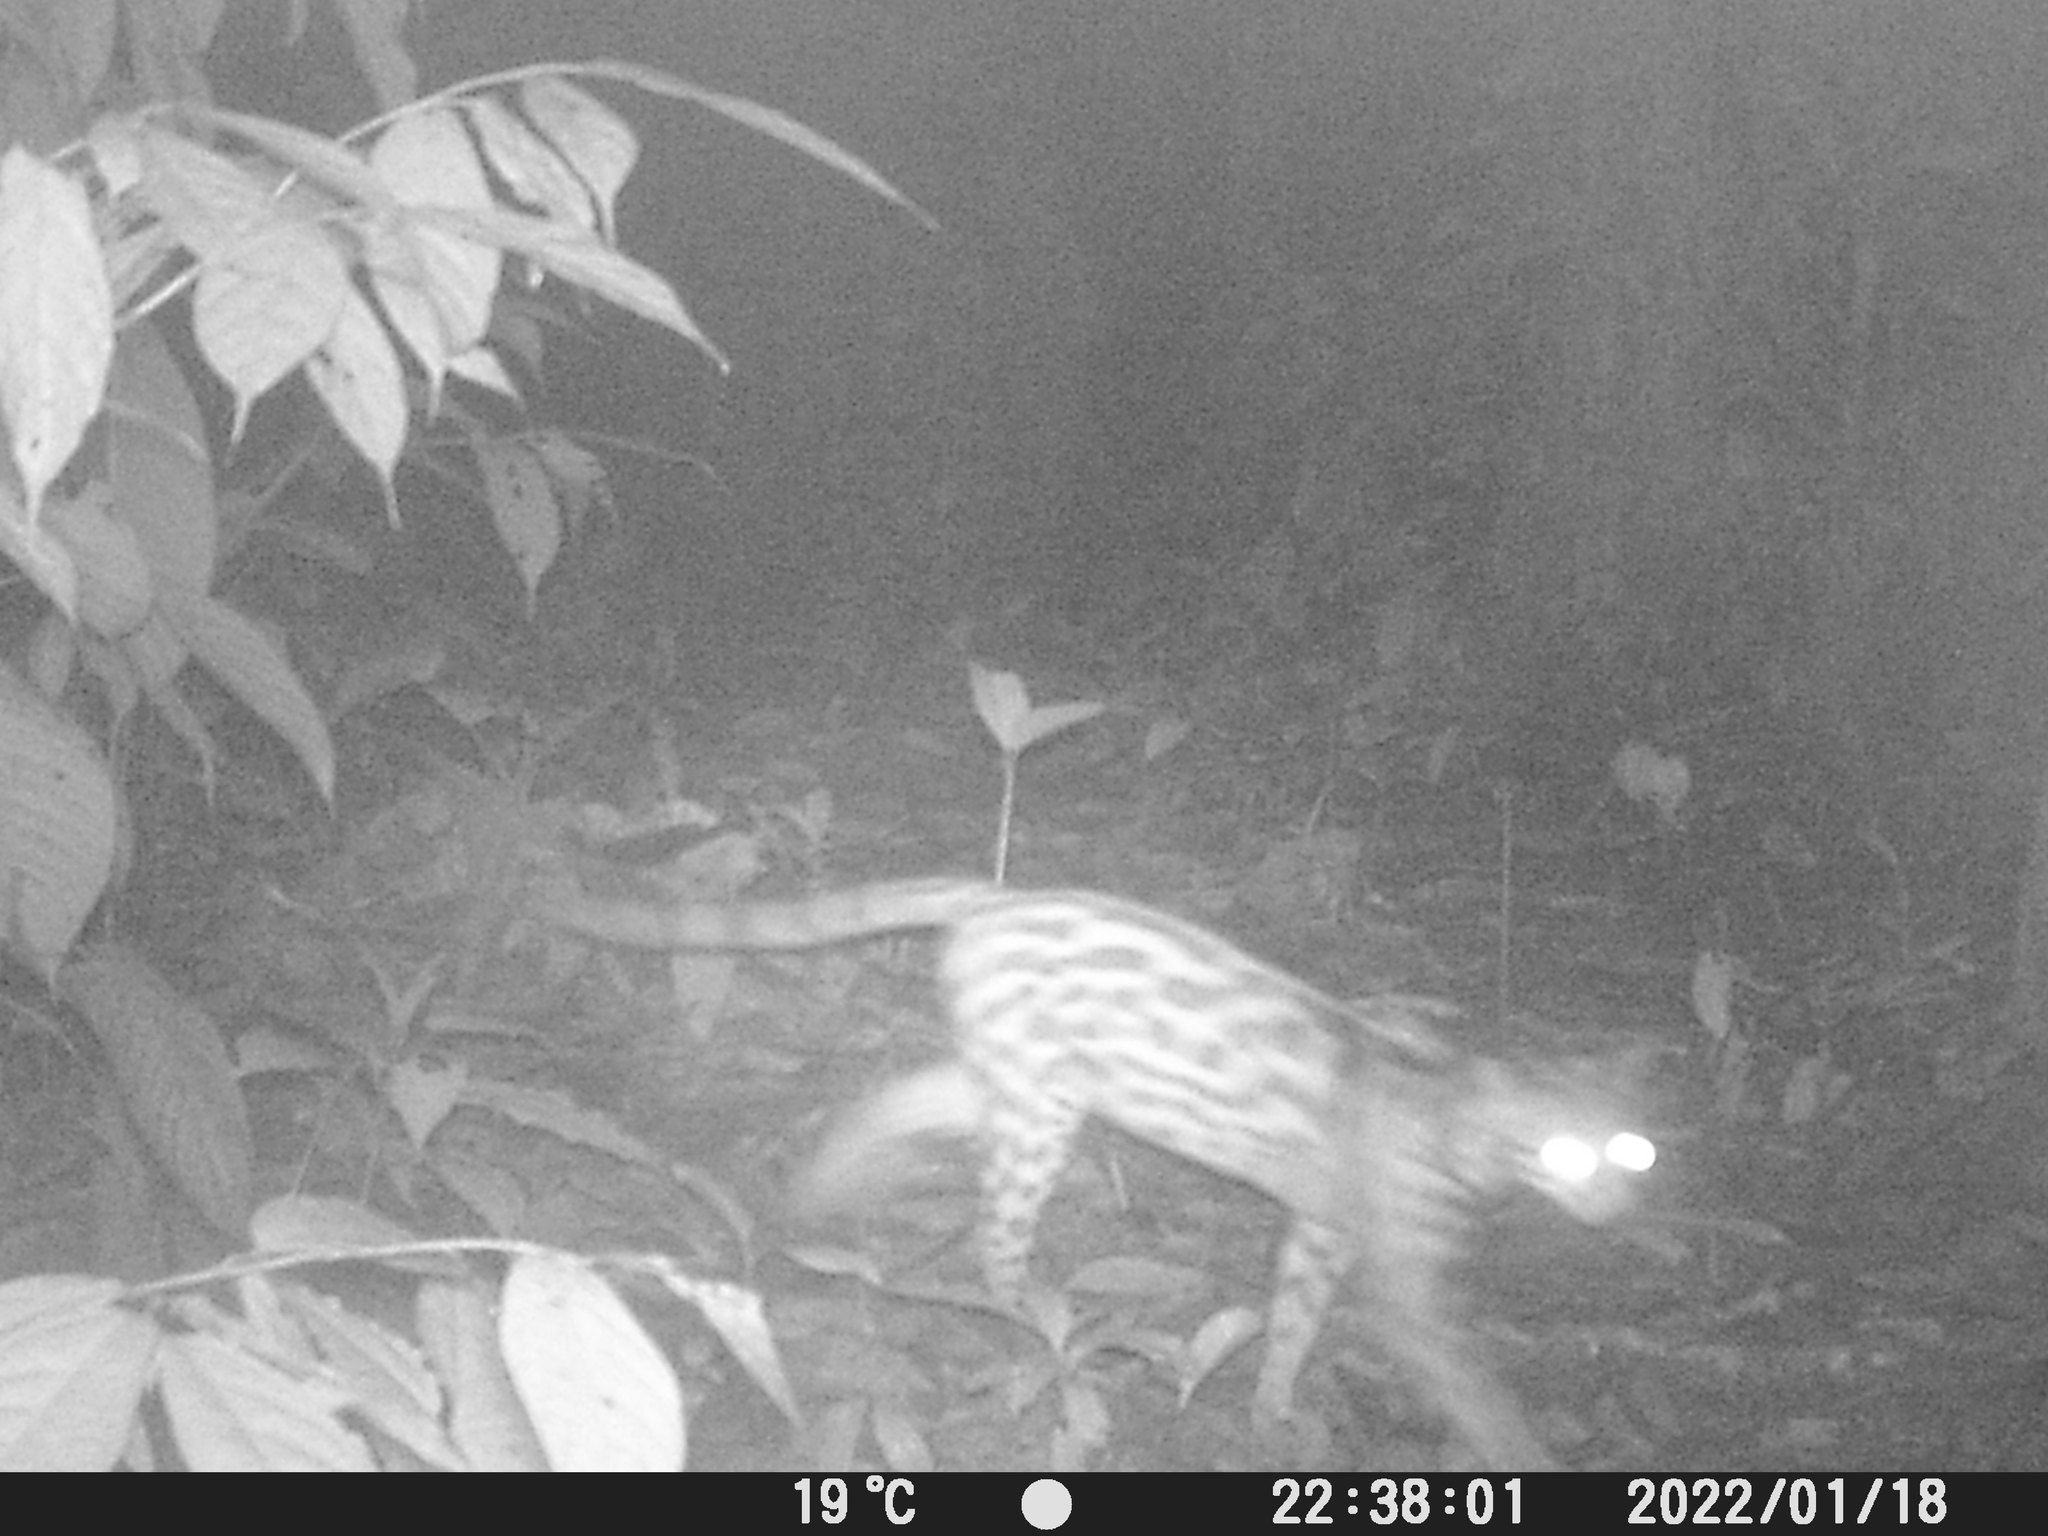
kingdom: Animalia
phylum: Chordata
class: Mammalia
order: Carnivora
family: Felidae
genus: Leopardus
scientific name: Leopardus wiedii
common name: Margay
